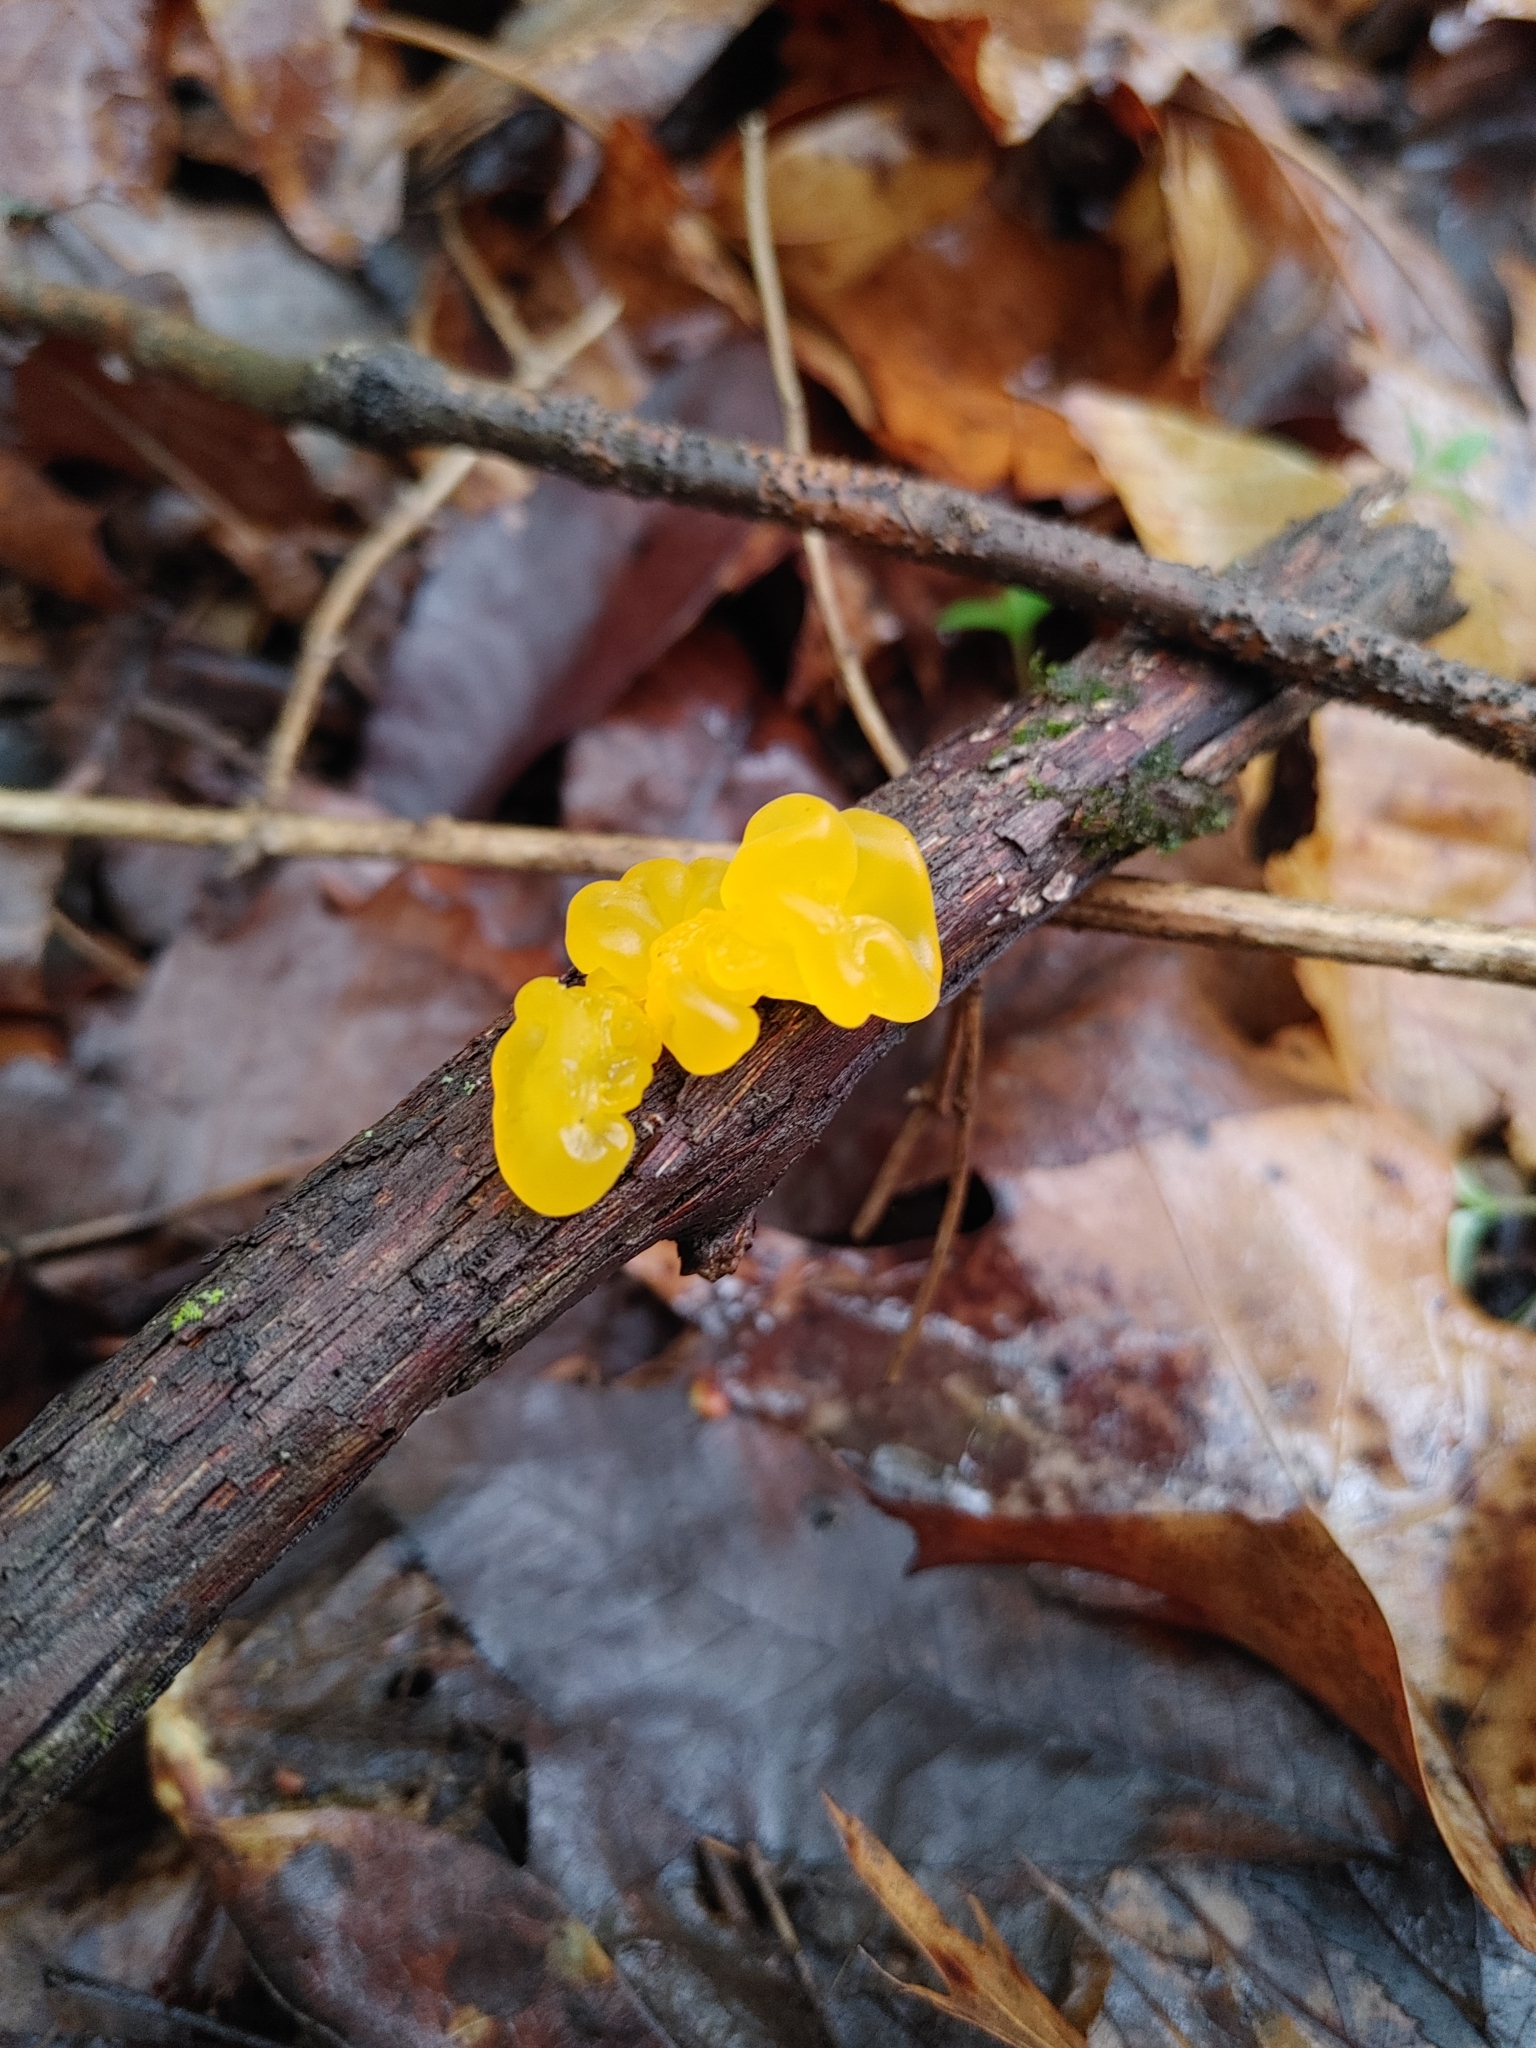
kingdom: Fungi
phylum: Basidiomycota
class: Tremellomycetes
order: Tremellales
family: Tremellaceae
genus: Tremella
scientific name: Tremella mesenterica
